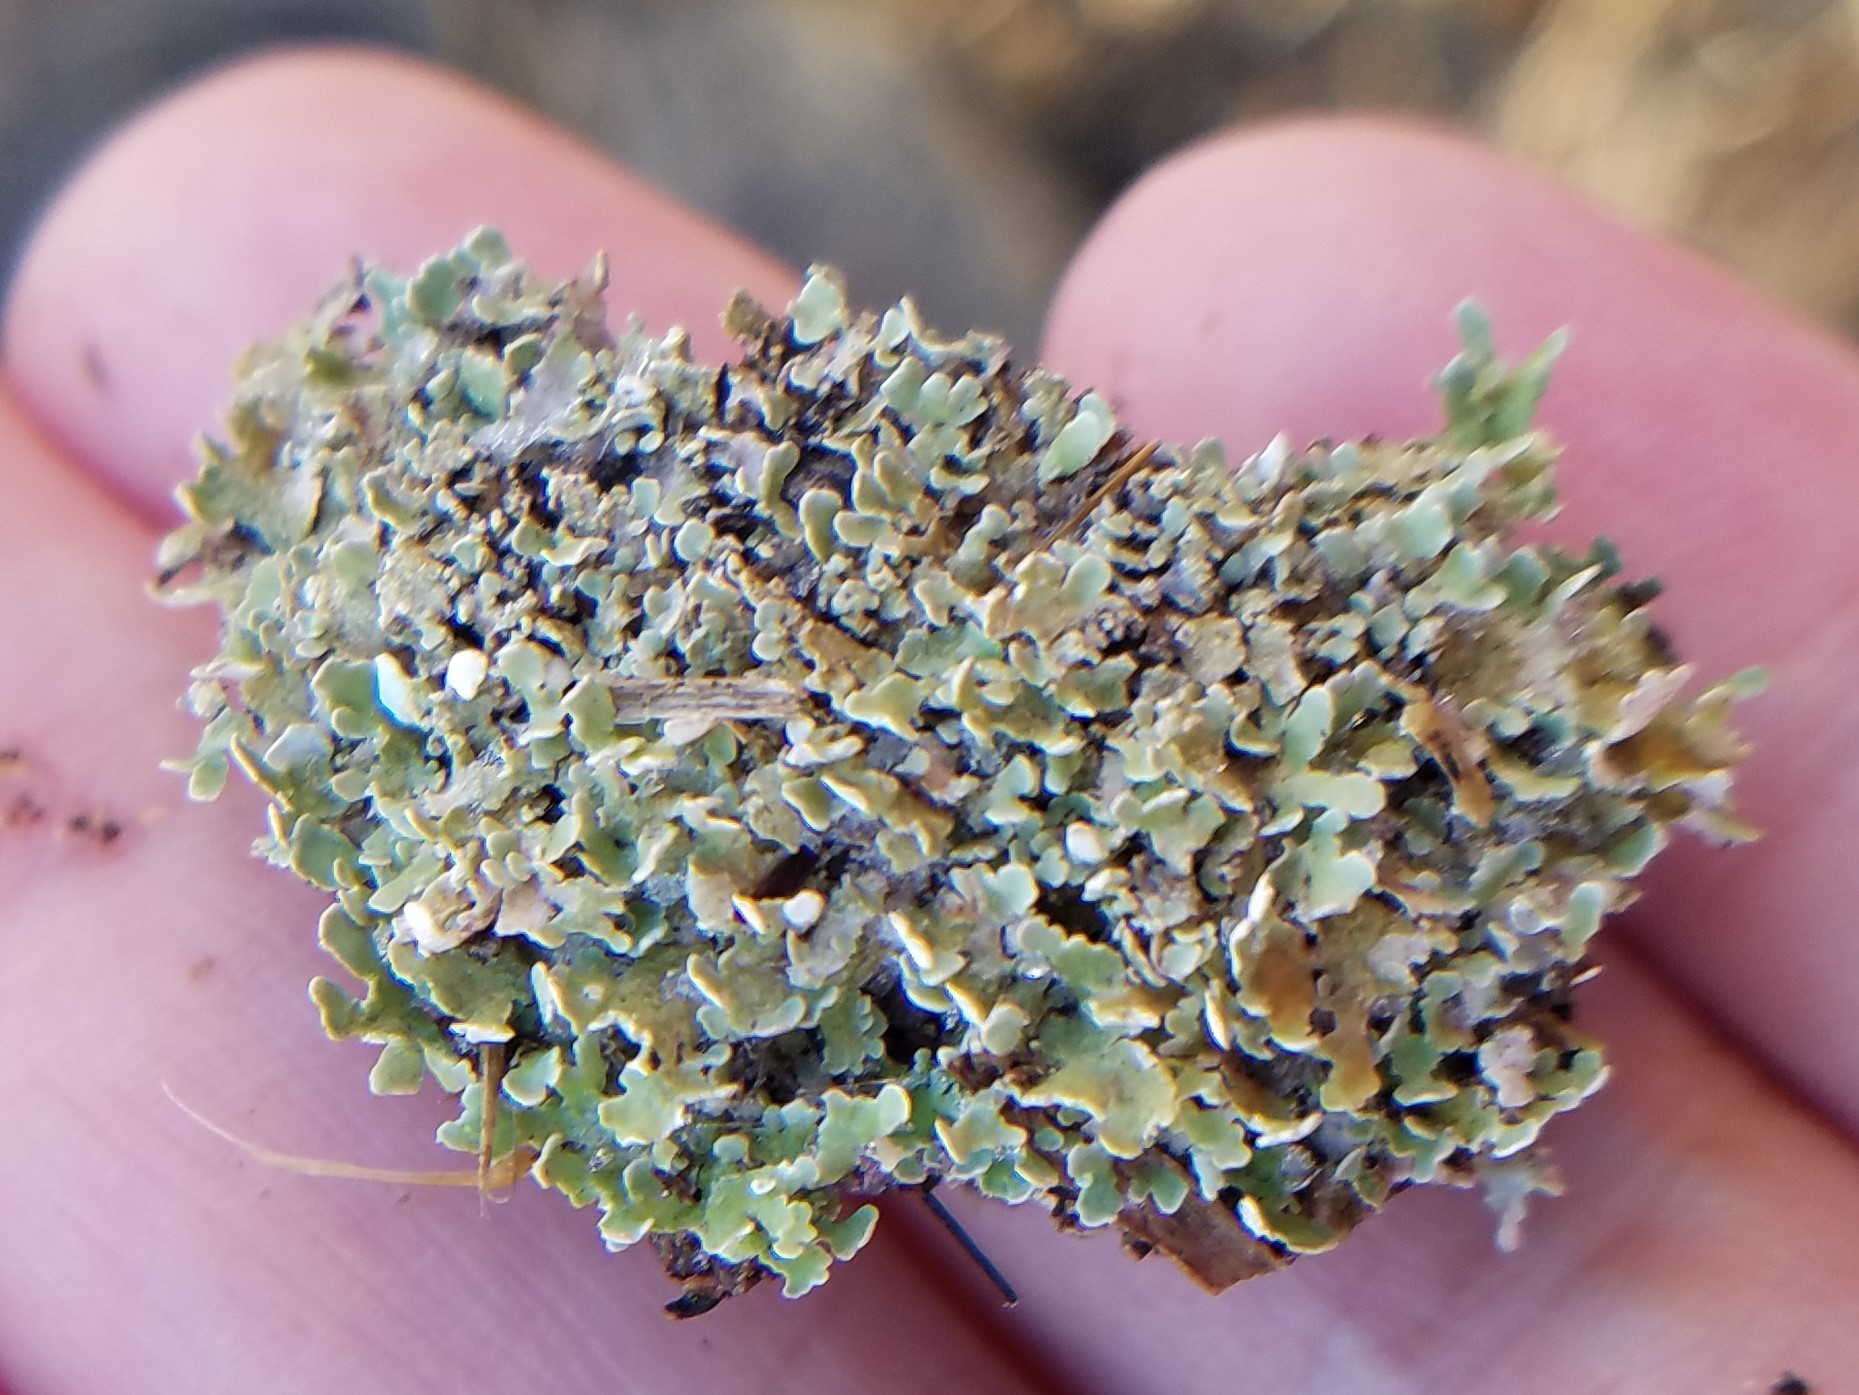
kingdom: Fungi
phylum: Ascomycota
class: Lecanoromycetes
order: Lecanorales
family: Cladoniaceae
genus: Cladonia
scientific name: Cladonia strepsilis
